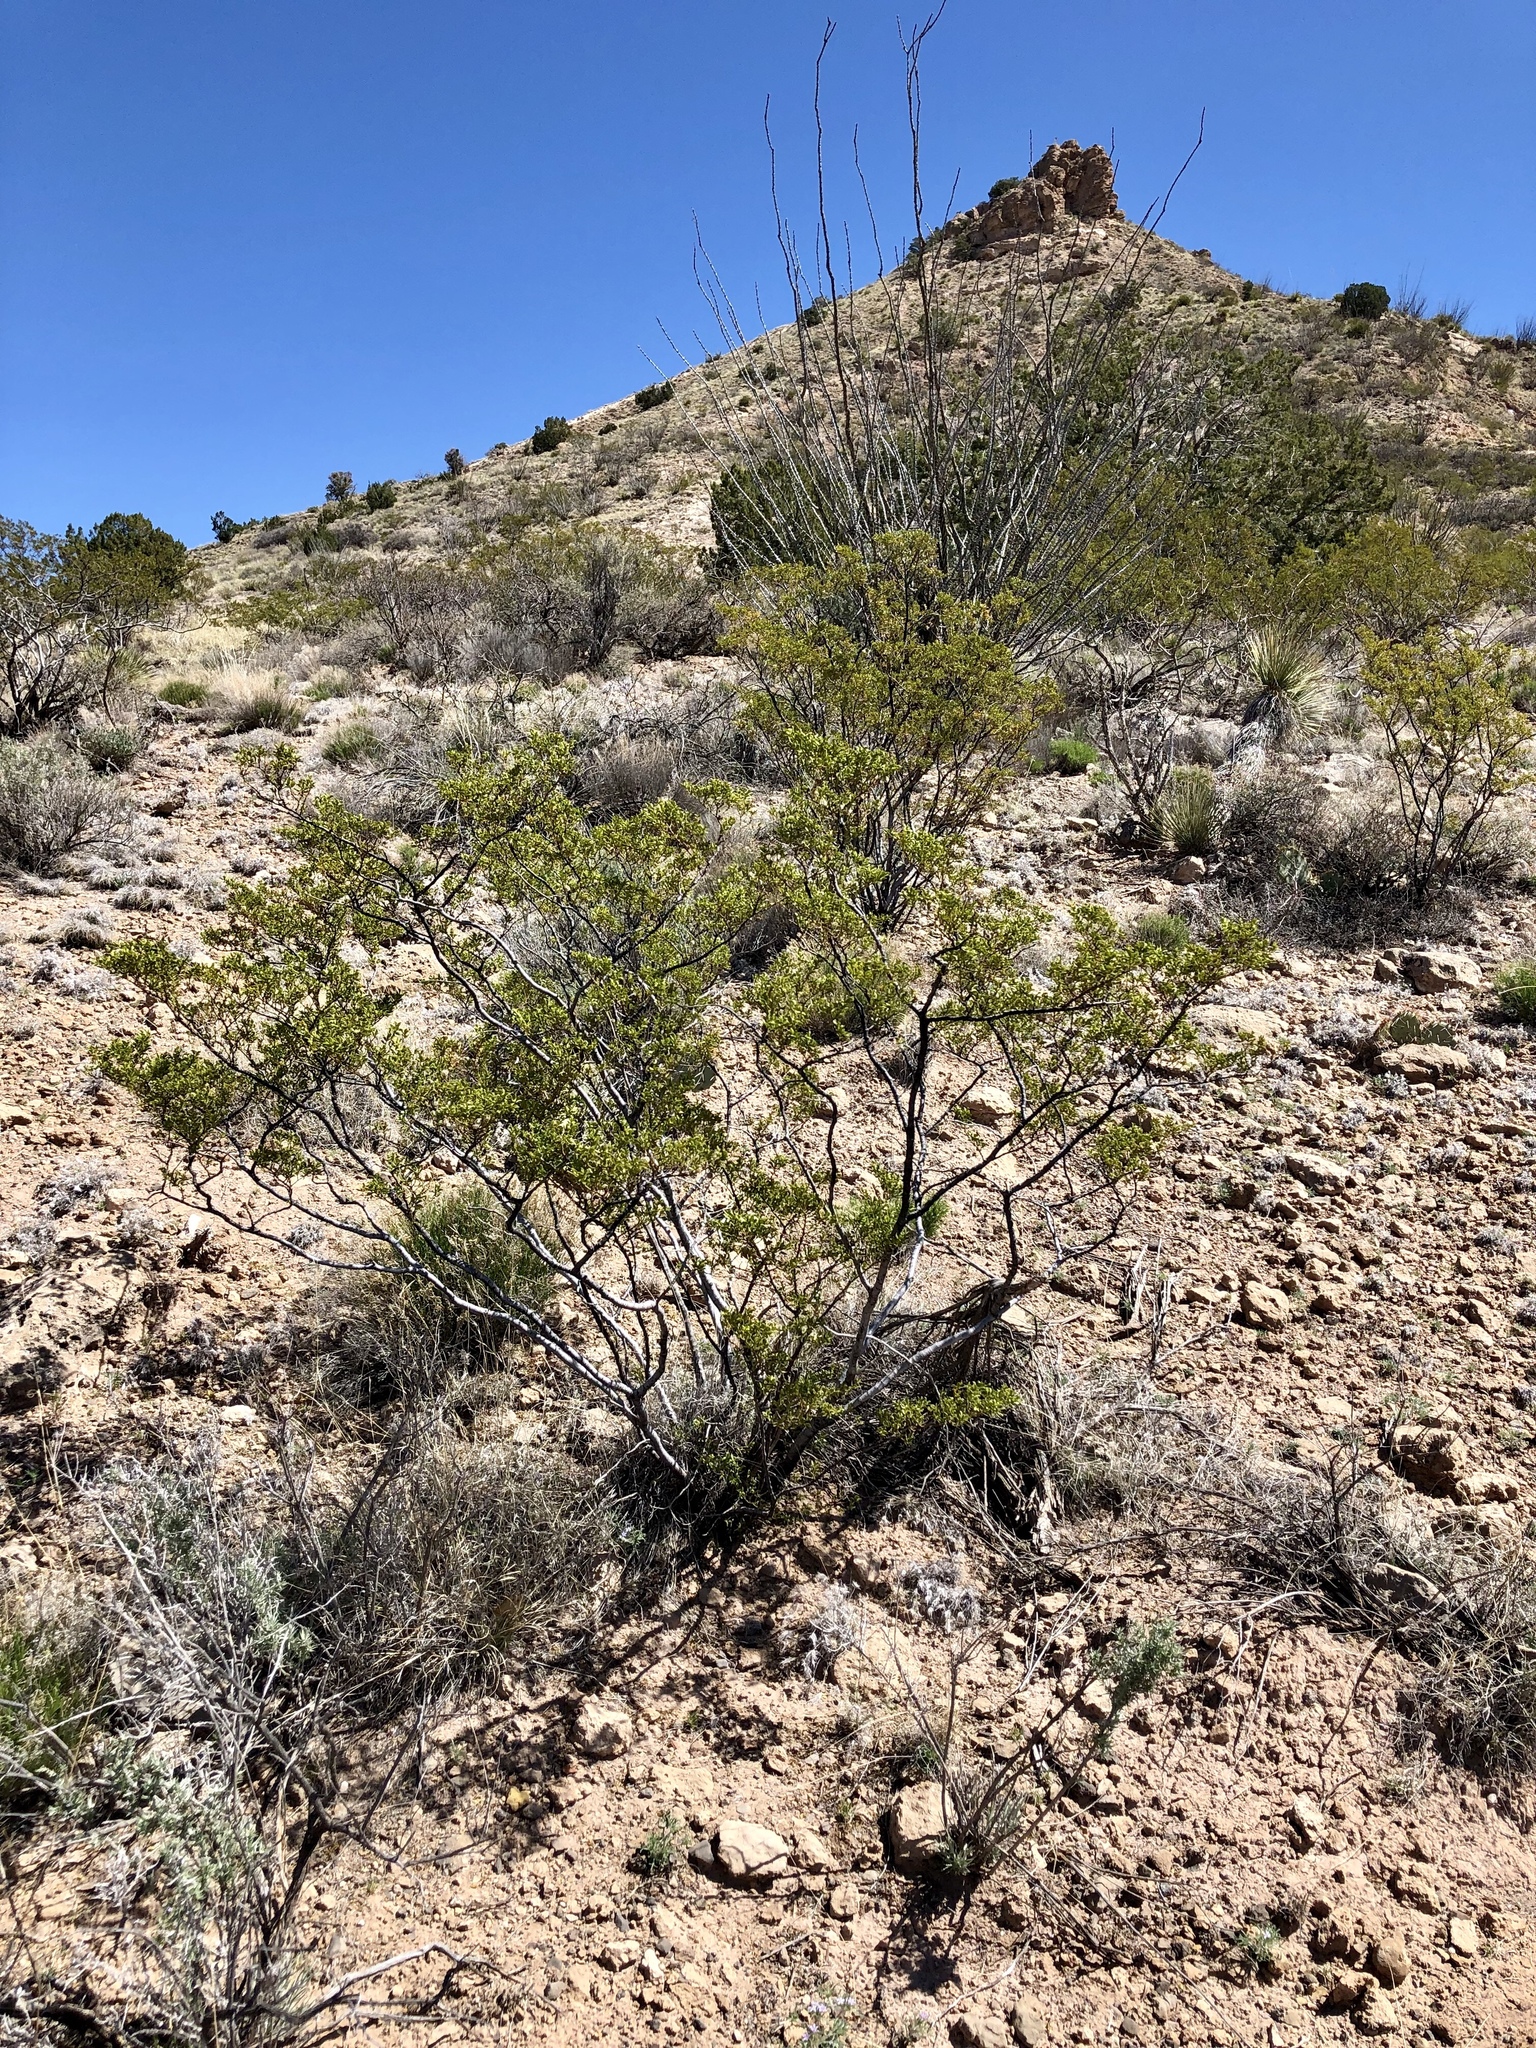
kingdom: Plantae
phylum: Tracheophyta
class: Magnoliopsida
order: Zygophyllales
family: Zygophyllaceae
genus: Larrea
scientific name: Larrea tridentata
